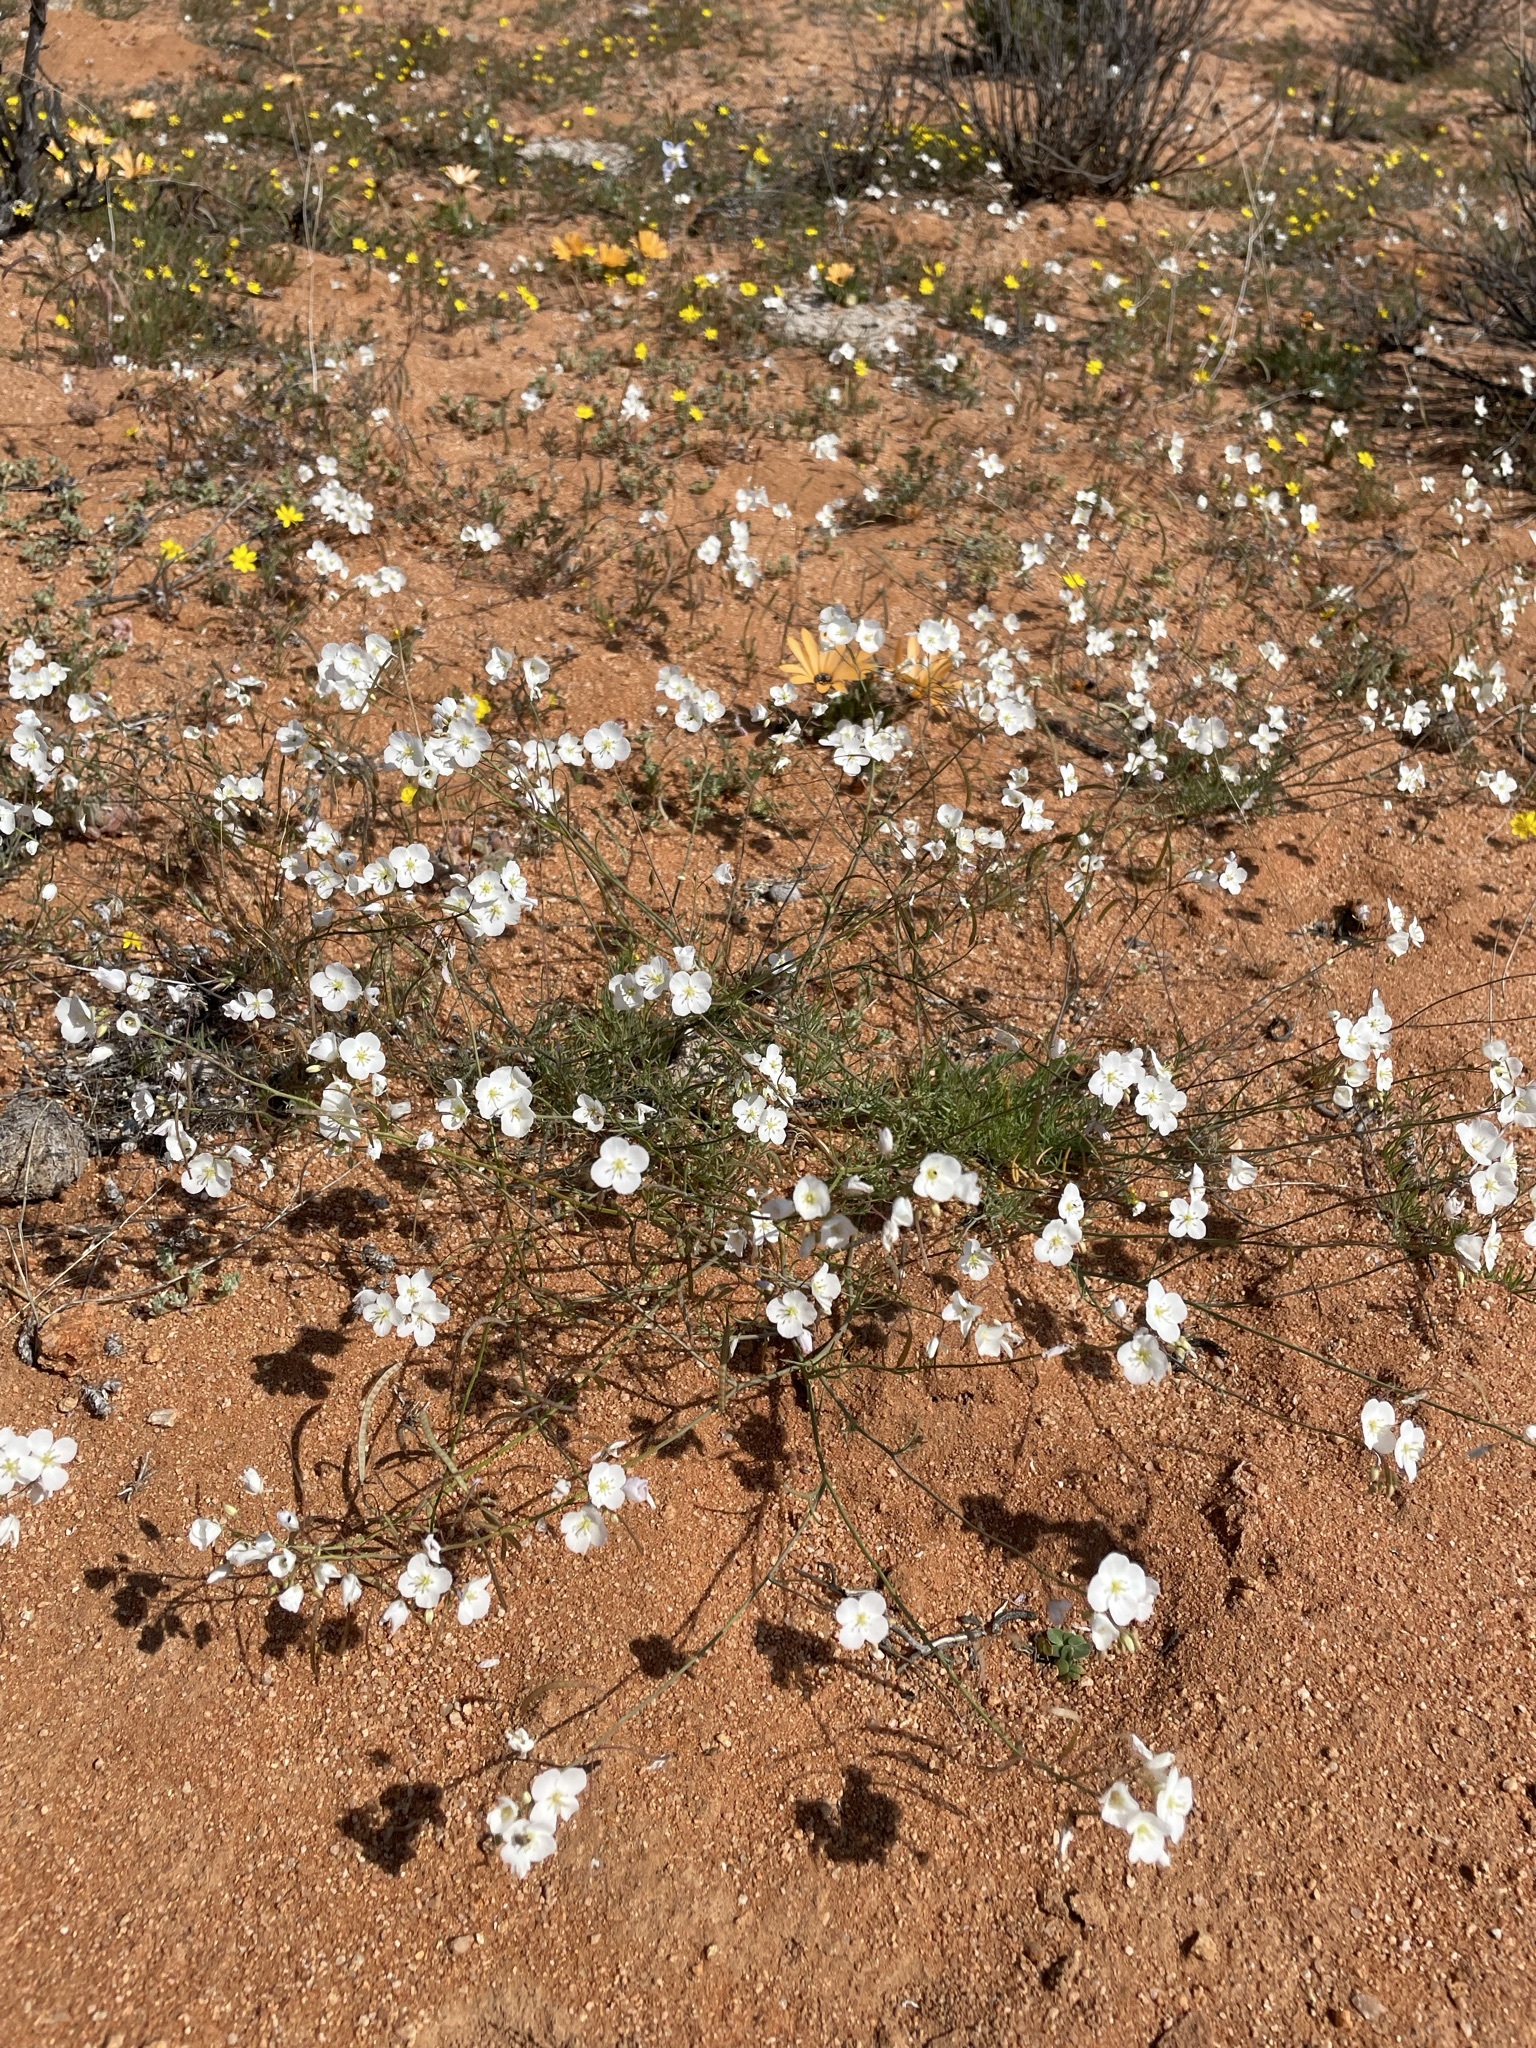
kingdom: Plantae
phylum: Tracheophyta
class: Magnoliopsida
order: Brassicales
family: Brassicaceae
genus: Heliophila
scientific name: Heliophila seselifolia
